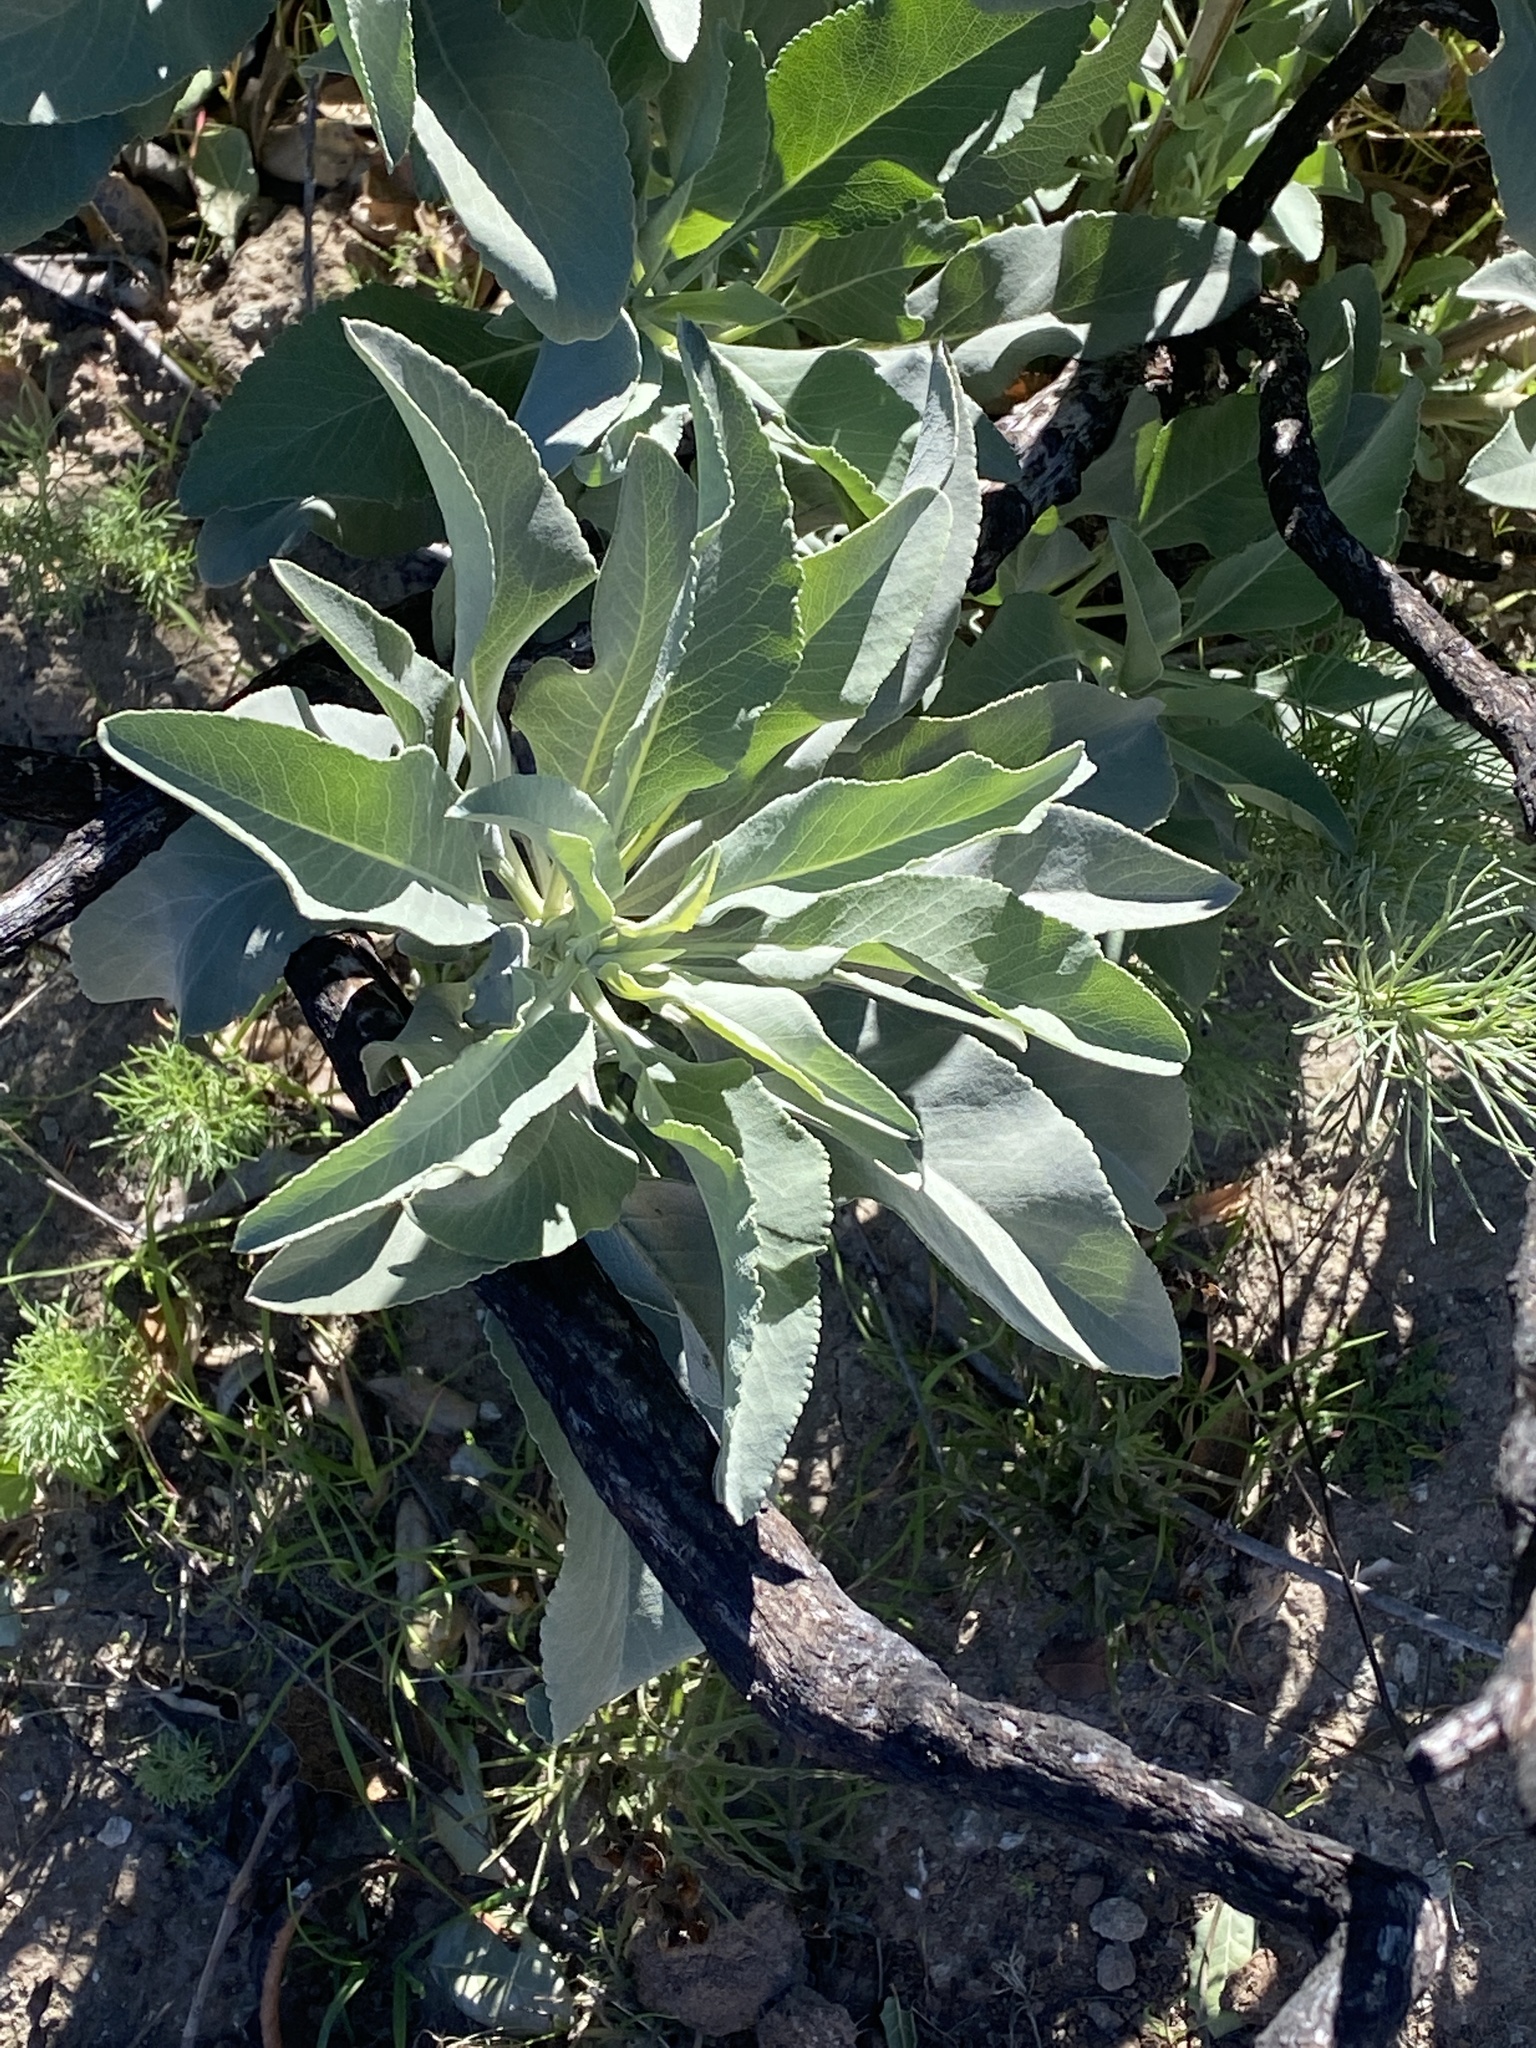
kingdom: Plantae
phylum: Tracheophyta
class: Magnoliopsida
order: Lamiales
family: Lamiaceae
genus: Salvia
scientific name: Salvia apiana
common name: White sage
